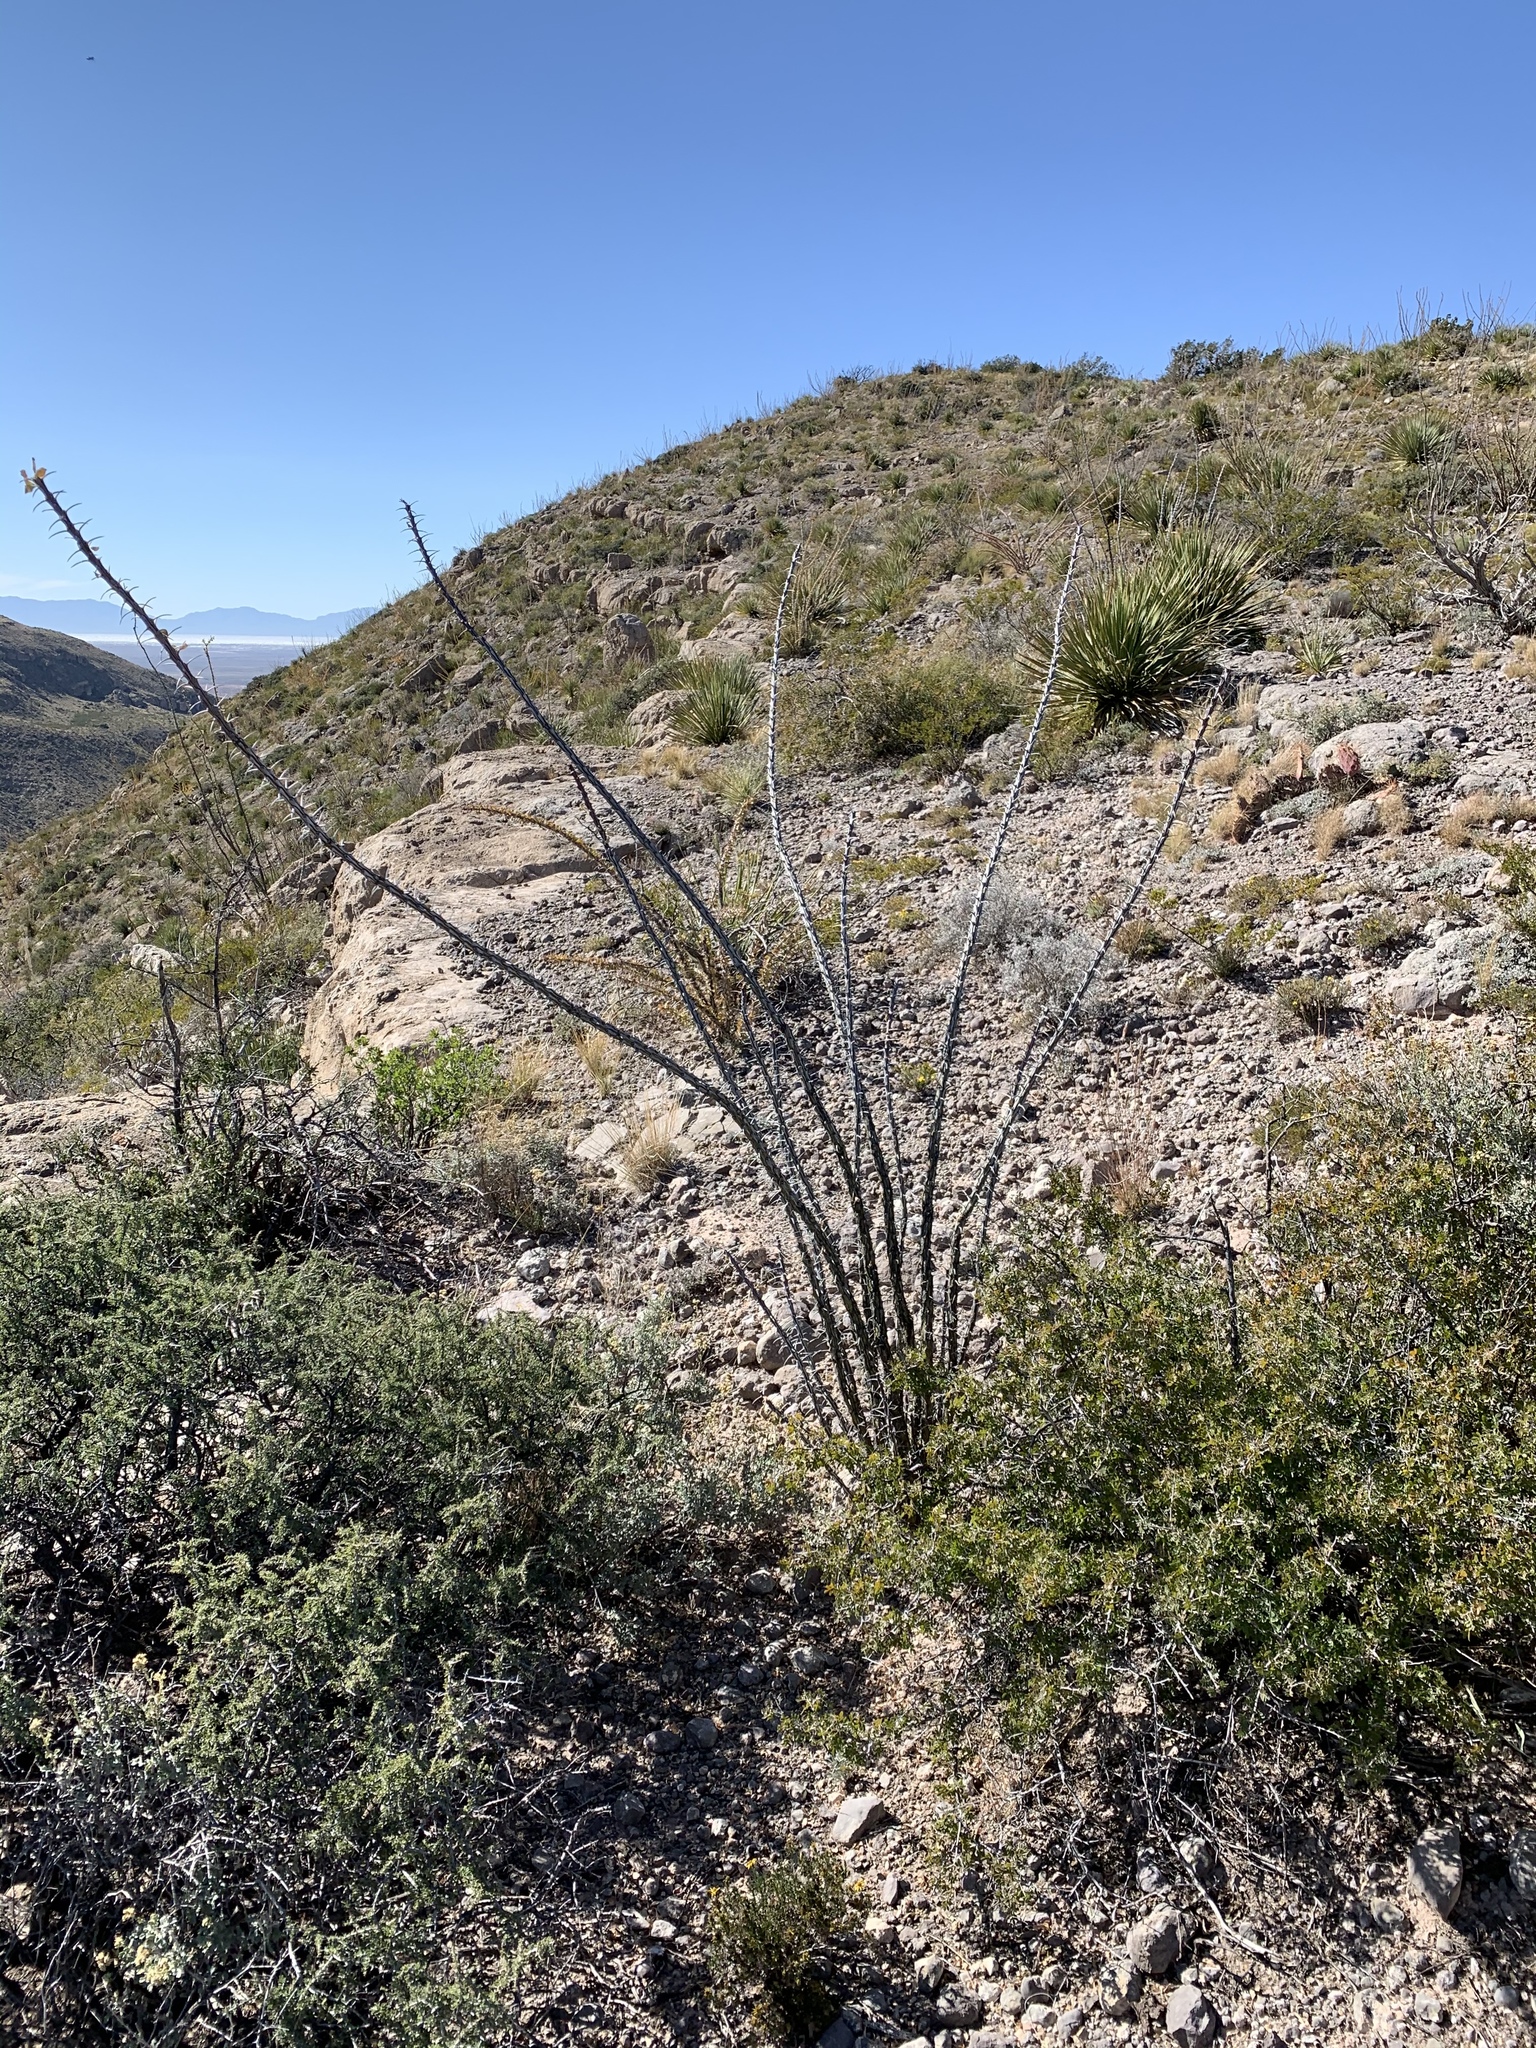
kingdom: Plantae
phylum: Tracheophyta
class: Magnoliopsida
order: Ericales
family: Fouquieriaceae
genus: Fouquieria
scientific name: Fouquieria splendens
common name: Vine-cactus
